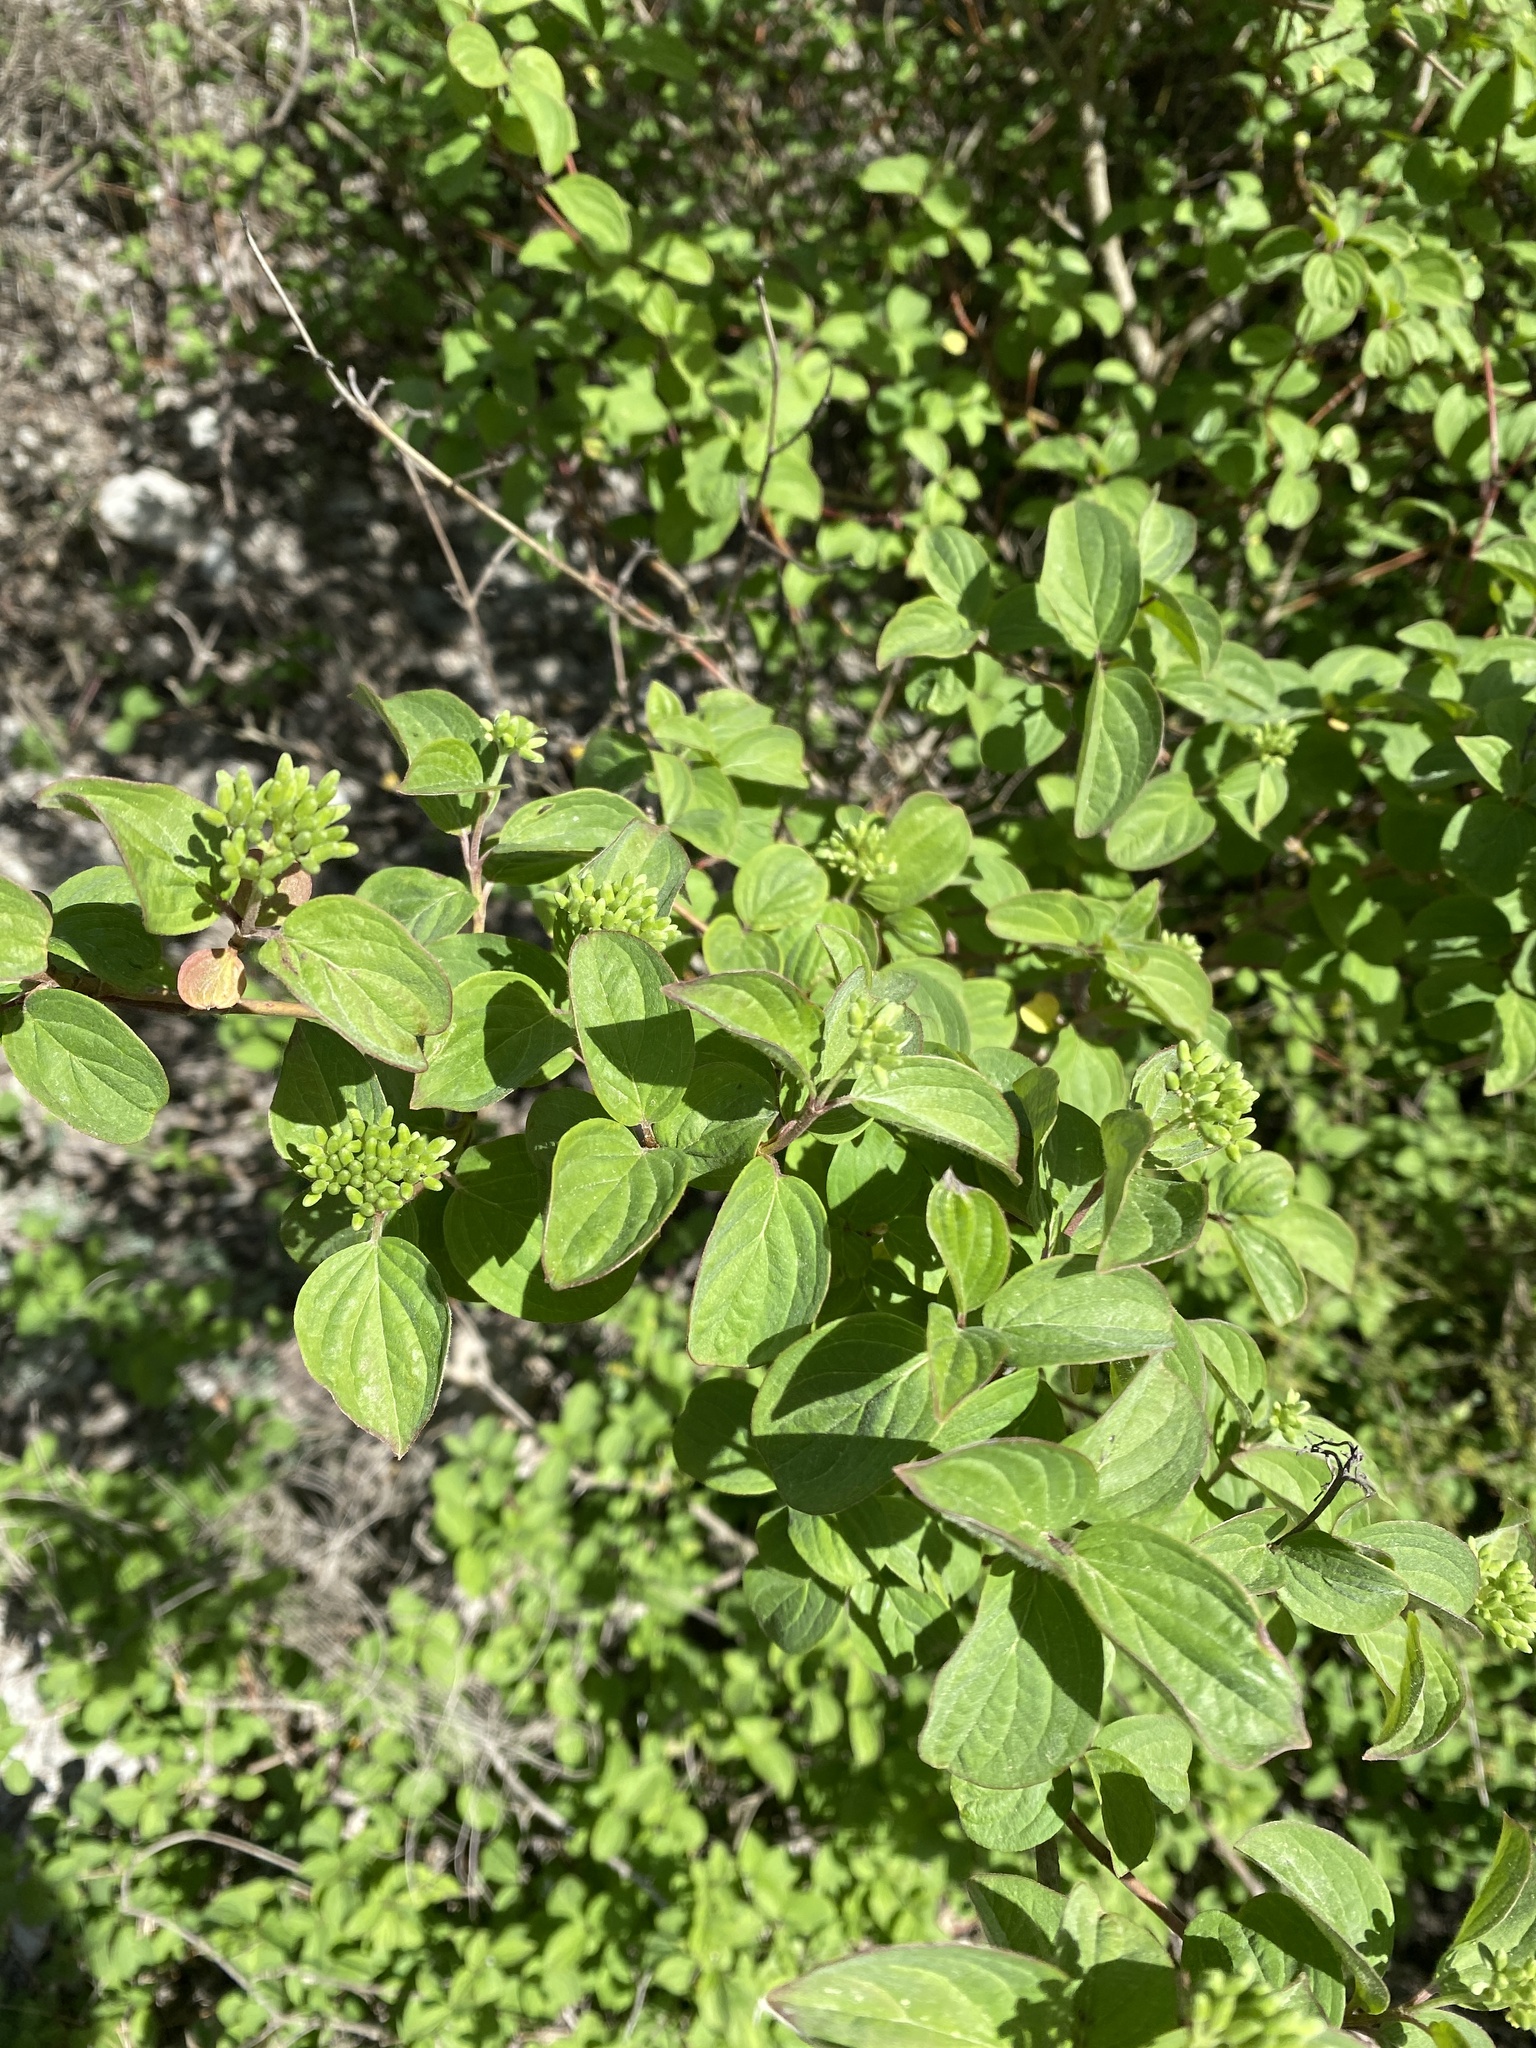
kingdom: Plantae
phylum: Tracheophyta
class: Magnoliopsida
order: Cornales
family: Cornaceae
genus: Cornus
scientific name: Cornus sanguinea
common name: Dogwood
